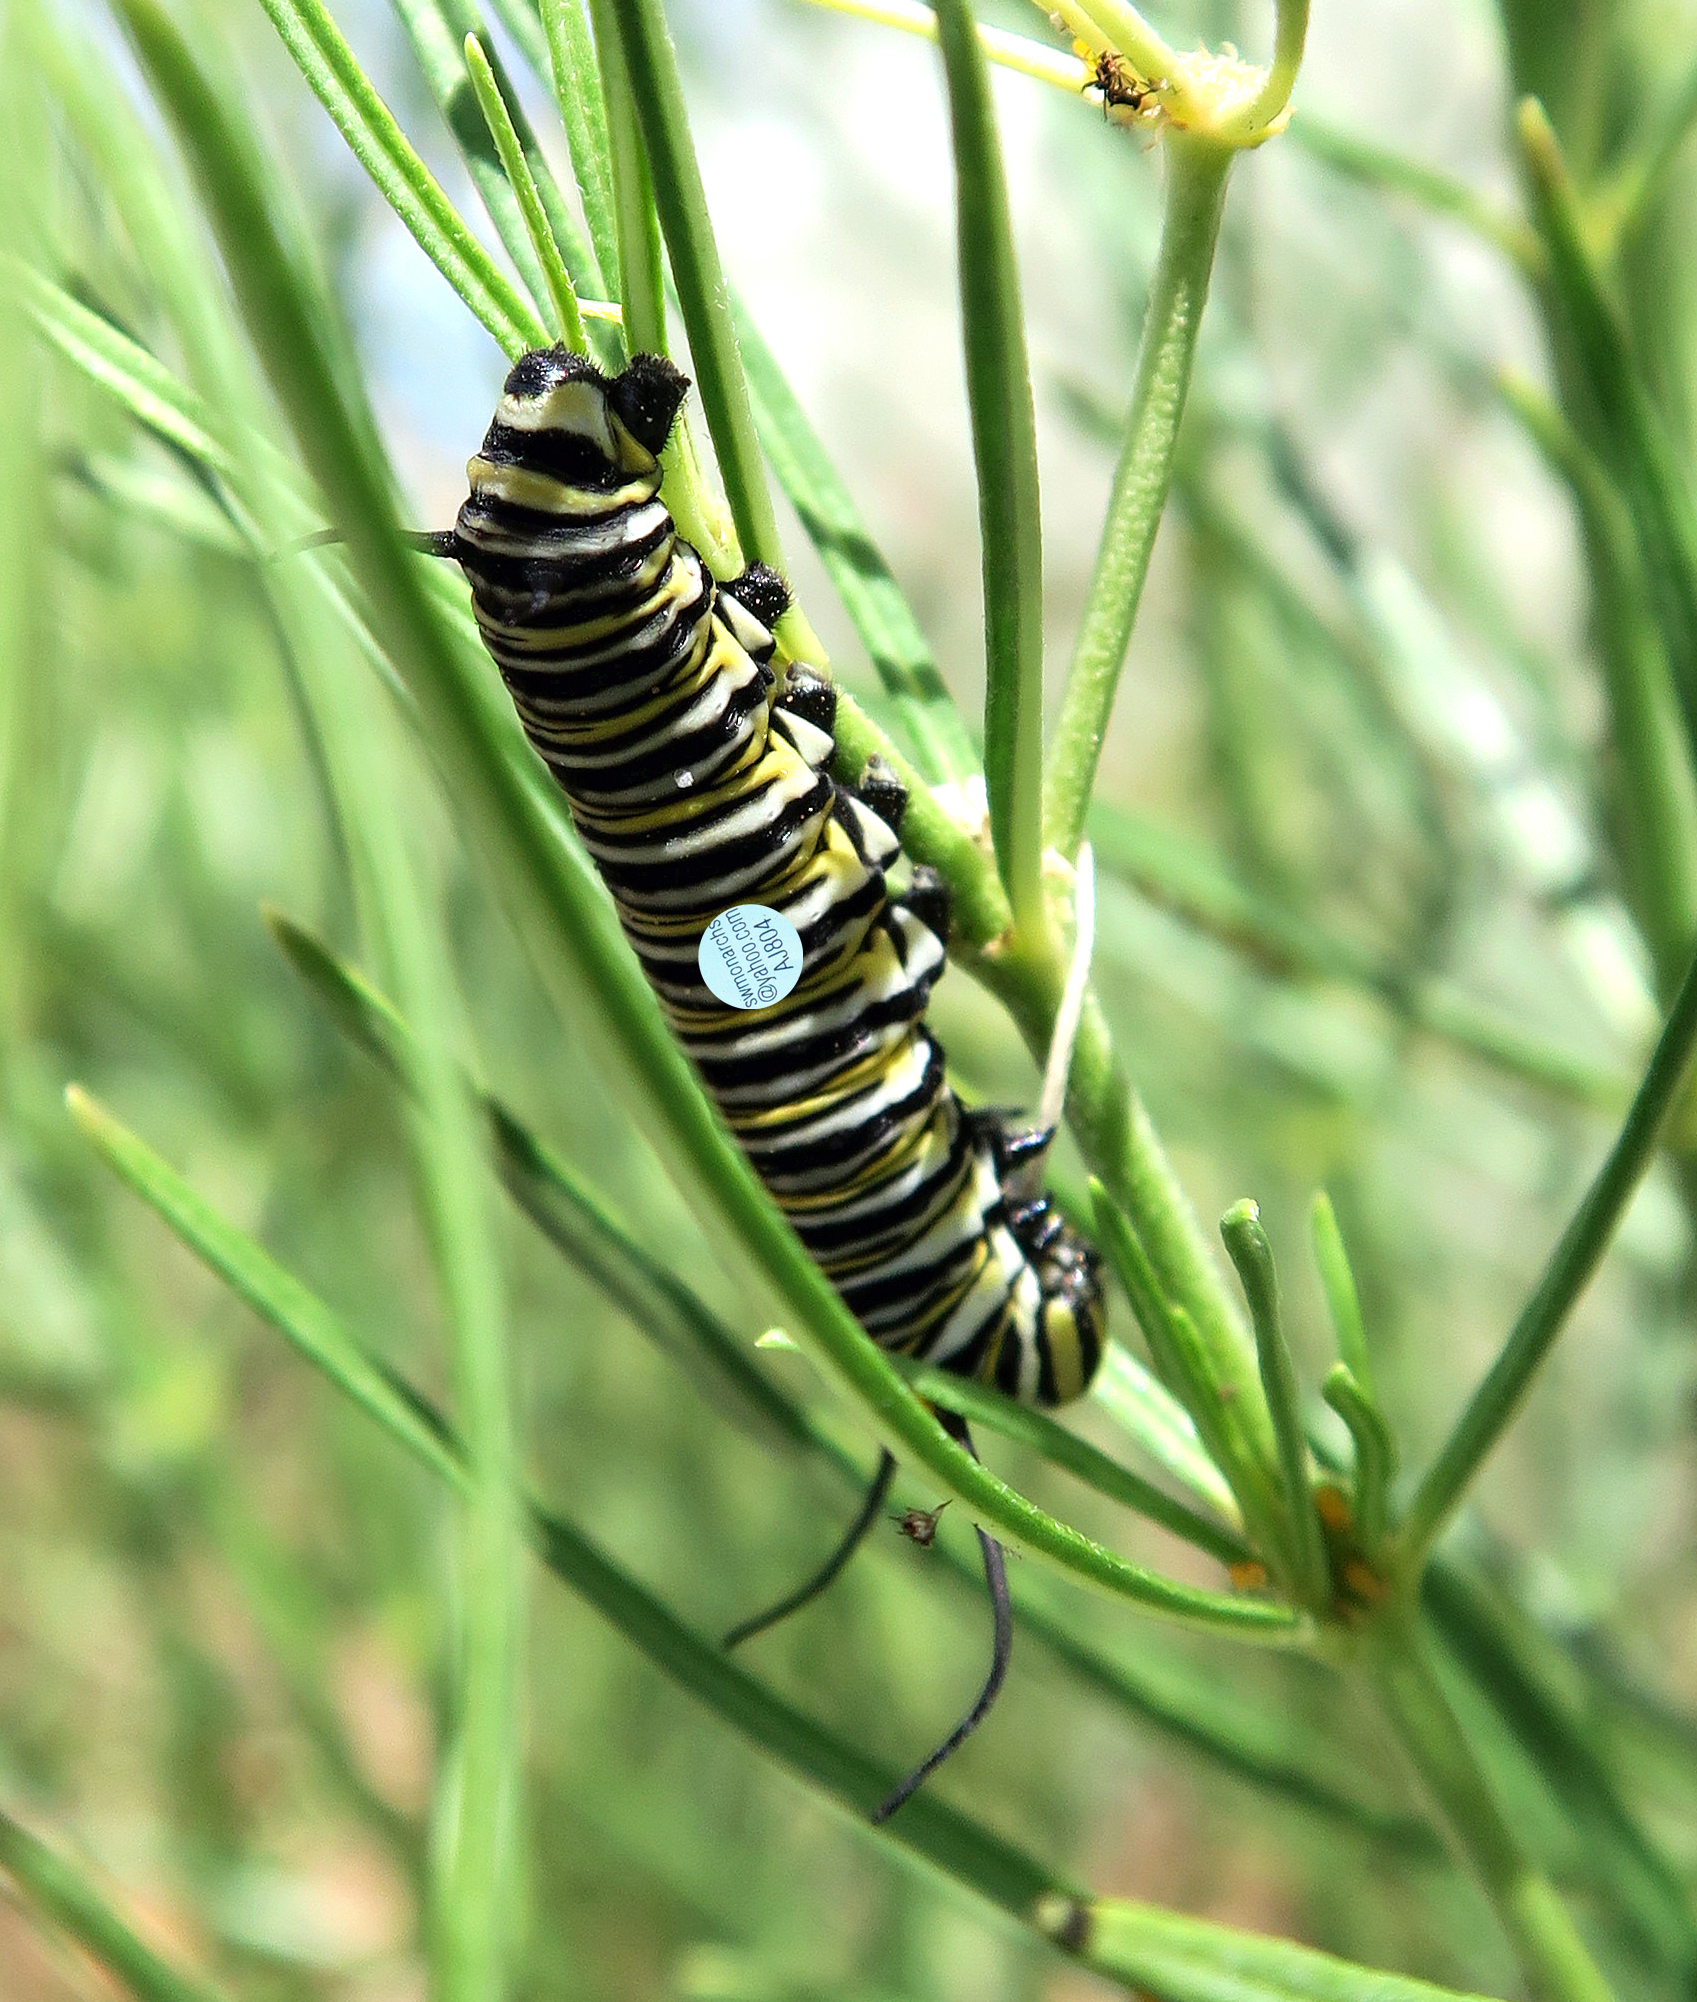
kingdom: Animalia
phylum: Arthropoda
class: Insecta
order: Lepidoptera
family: Nymphalidae
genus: Danaus
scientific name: Danaus plexippus
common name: Monarch
